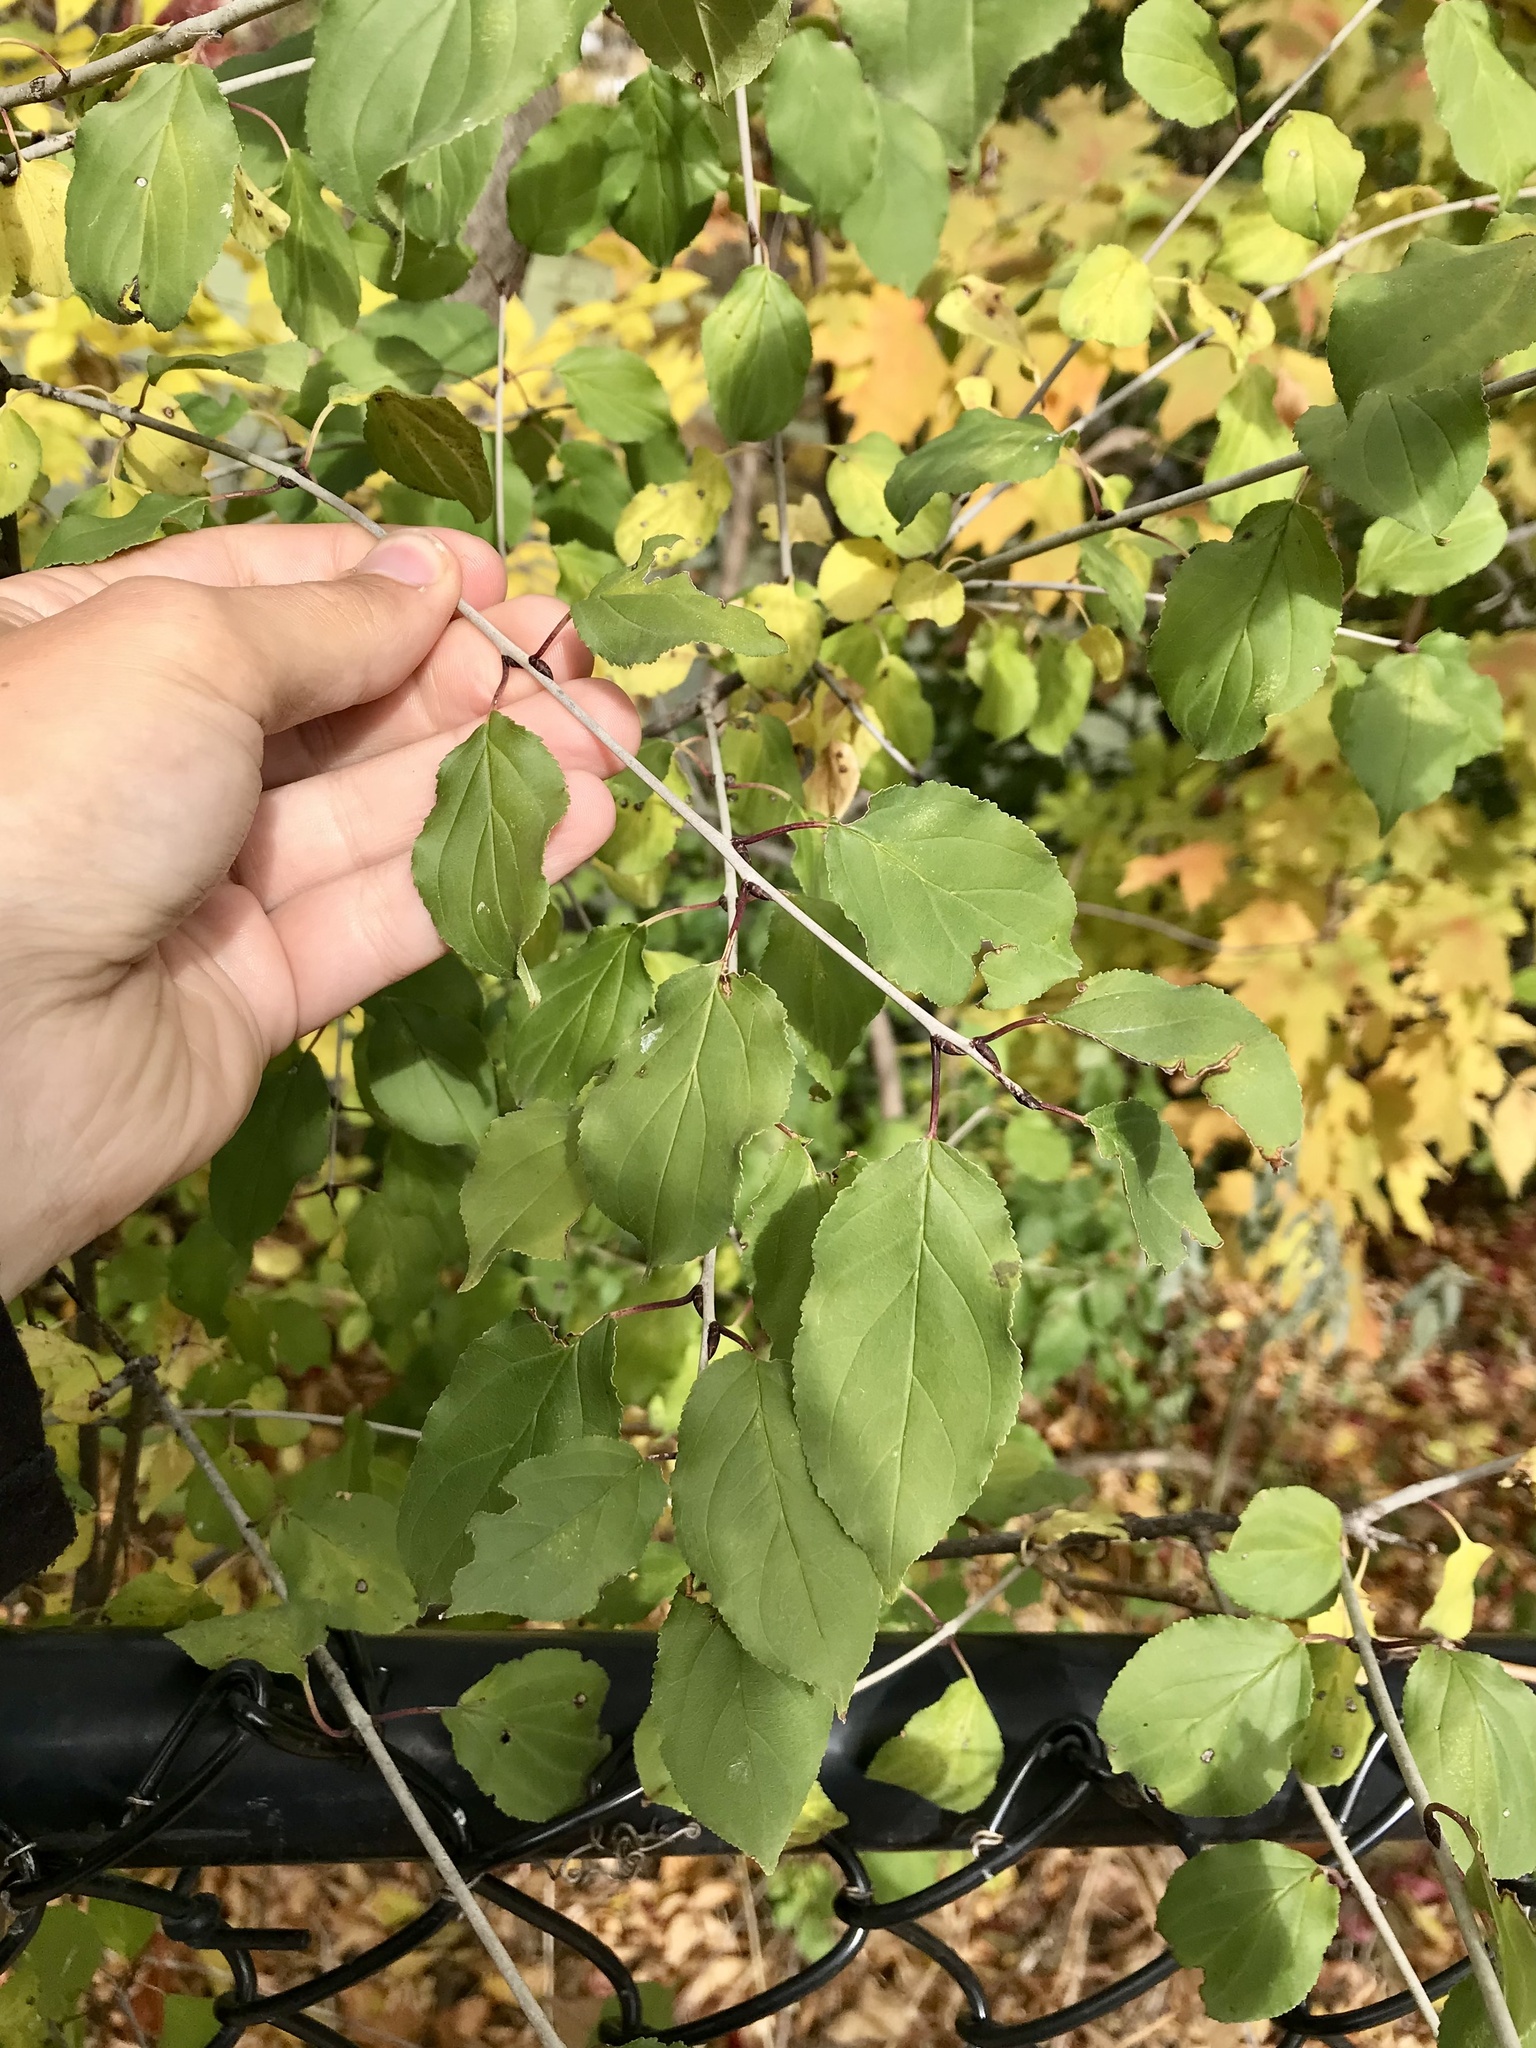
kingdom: Plantae
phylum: Tracheophyta
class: Magnoliopsida
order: Rosales
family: Rhamnaceae
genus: Rhamnus
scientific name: Rhamnus cathartica
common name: Common buckthorn
